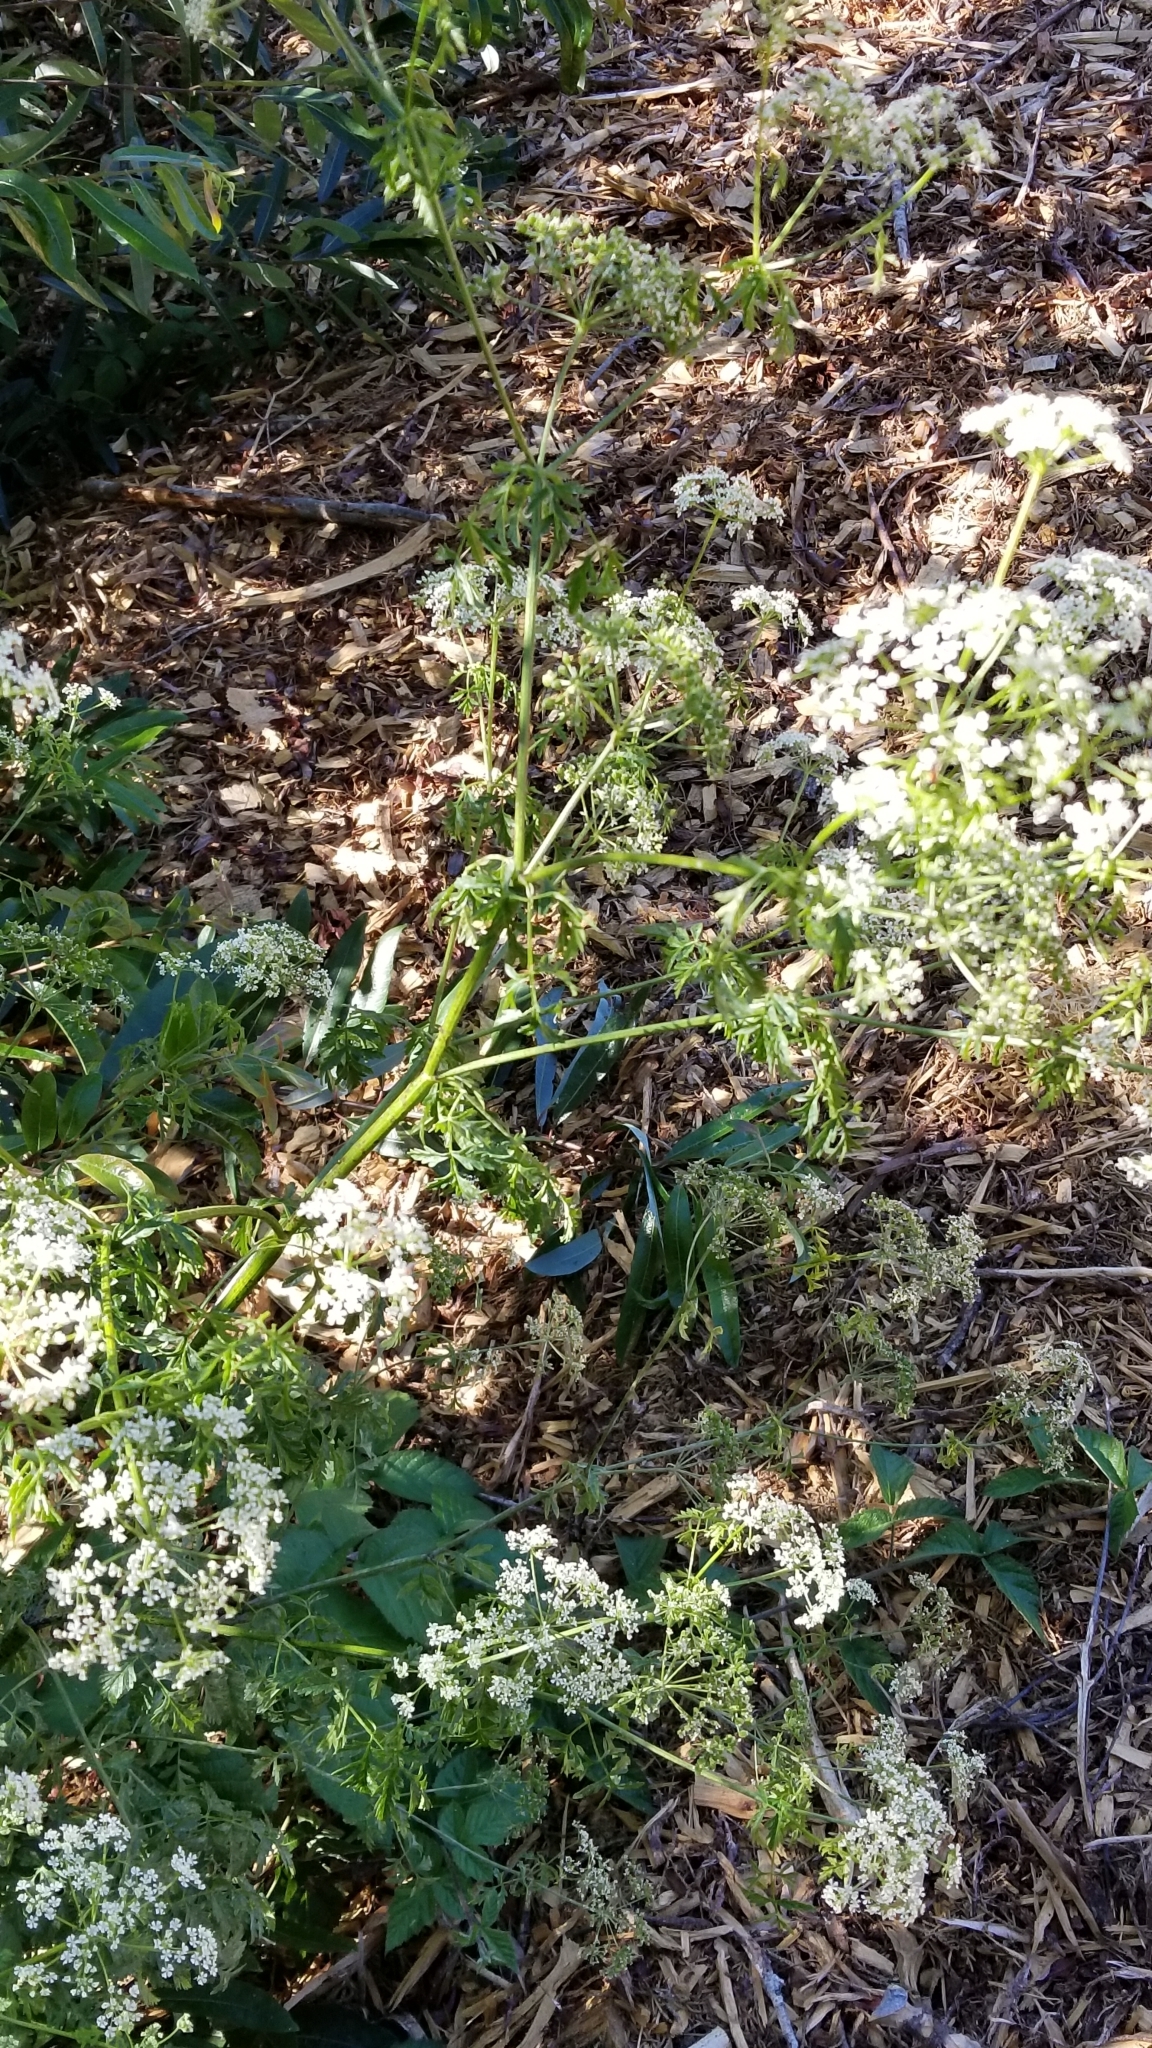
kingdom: Plantae
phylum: Tracheophyta
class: Magnoliopsida
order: Apiales
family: Apiaceae
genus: Conium
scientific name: Conium maculatum
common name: Hemlock
